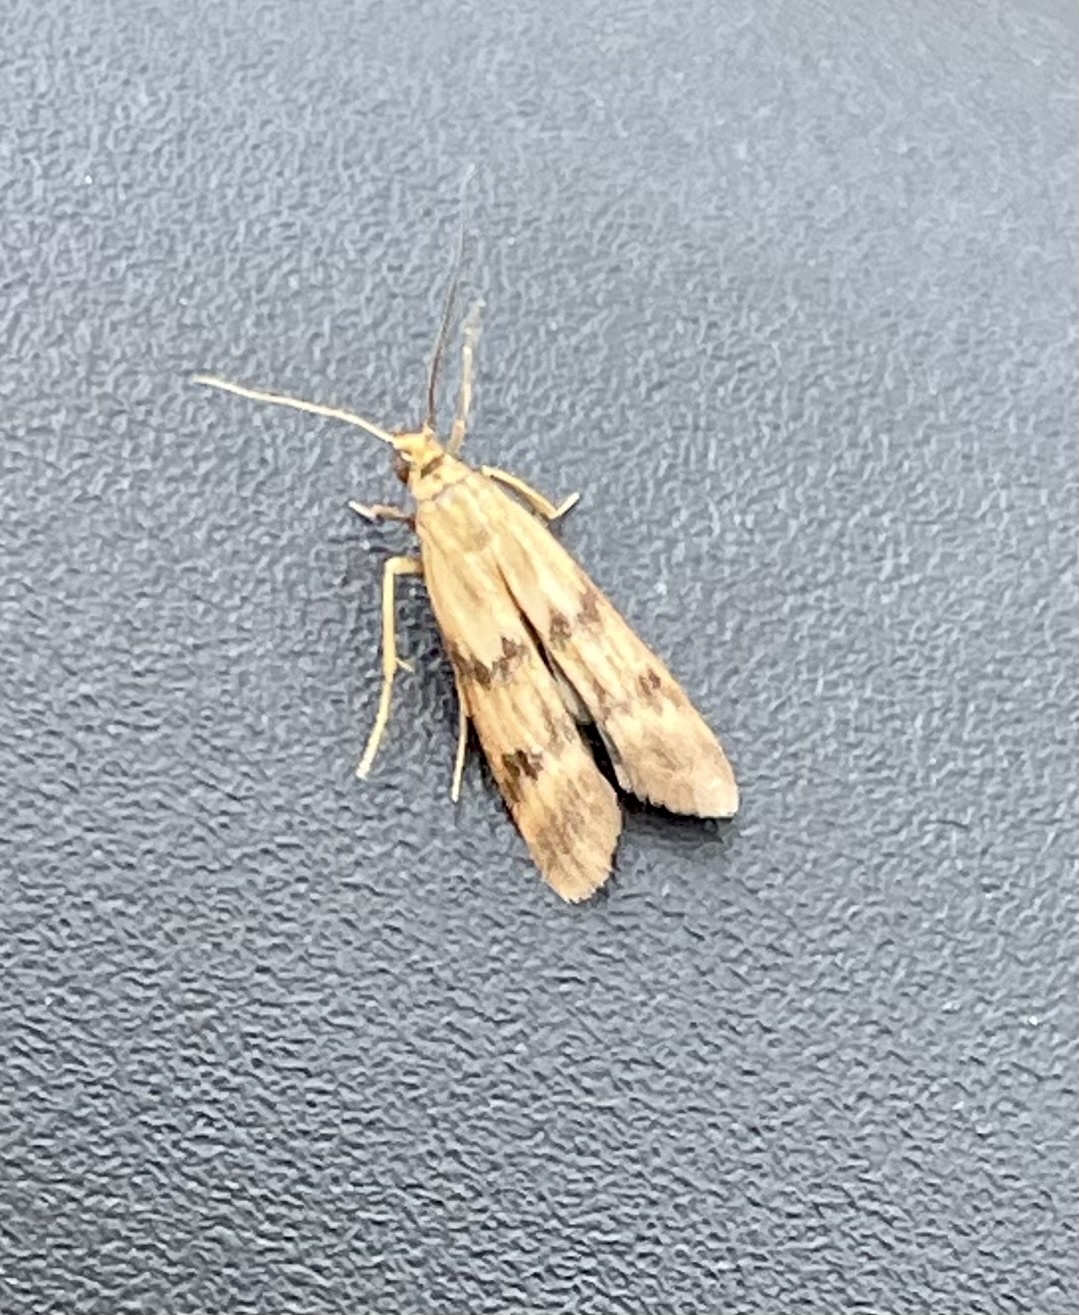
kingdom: Animalia
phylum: Arthropoda
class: Insecta
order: Lepidoptera
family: Pyralidae
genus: Homoeosoma
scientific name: Homoeosoma sinuella
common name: Twin-barred knot-horn
